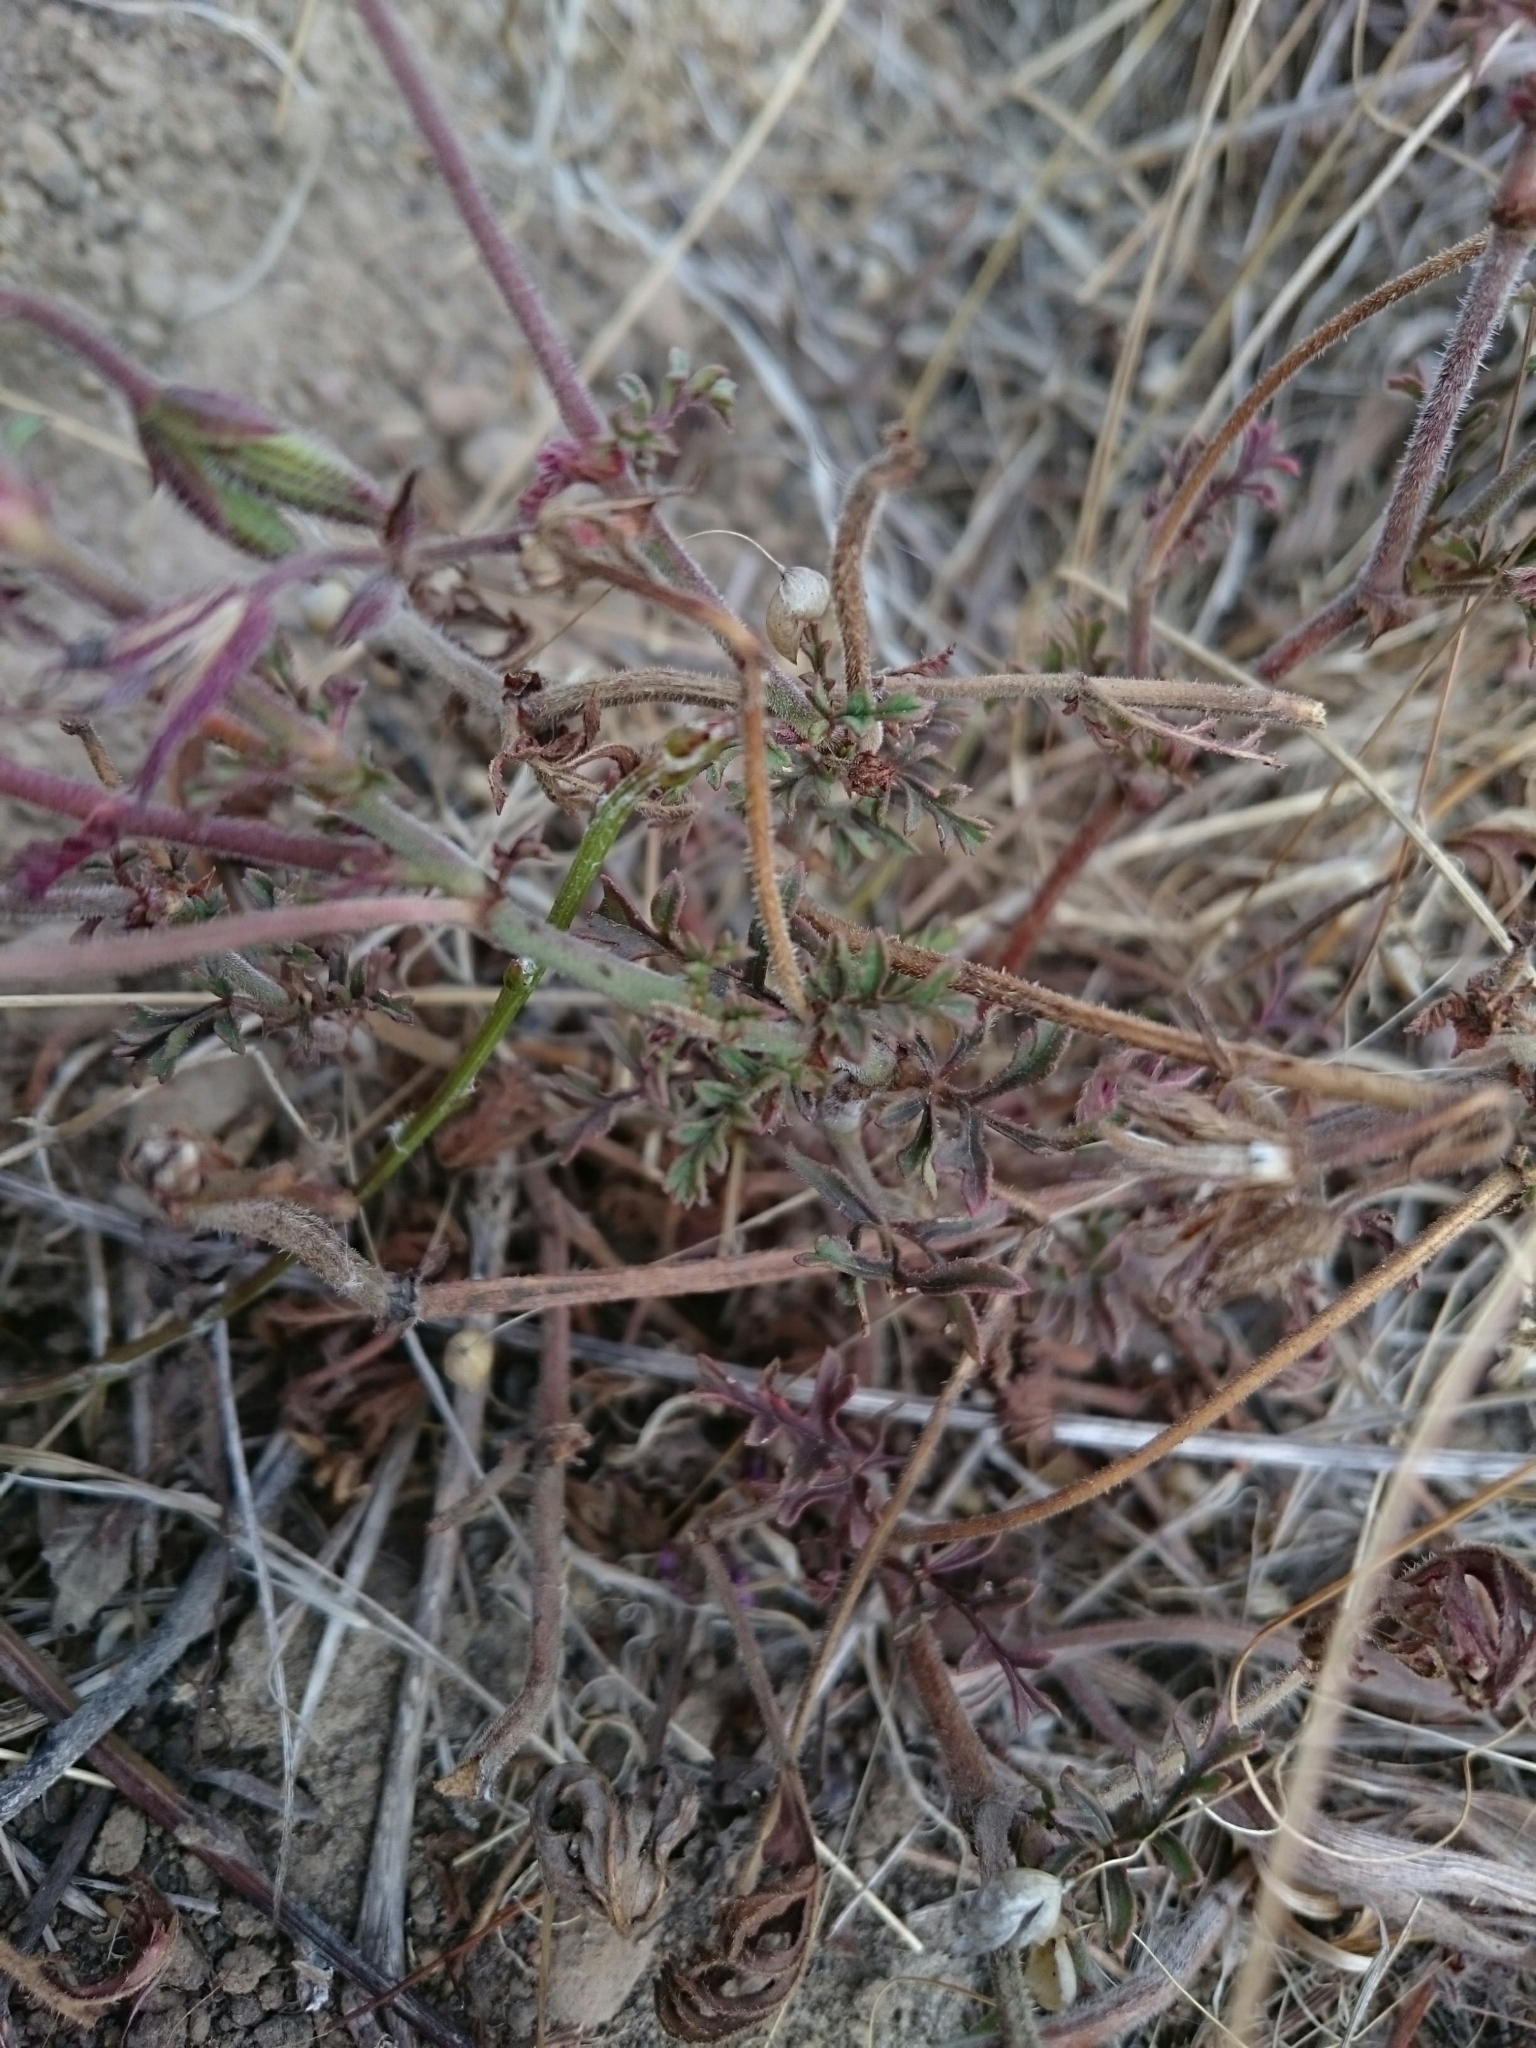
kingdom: Plantae
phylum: Tracheophyta
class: Magnoliopsida
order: Geraniales
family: Geraniaceae
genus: Pelargonium
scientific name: Pelargonium myrrhifolium
